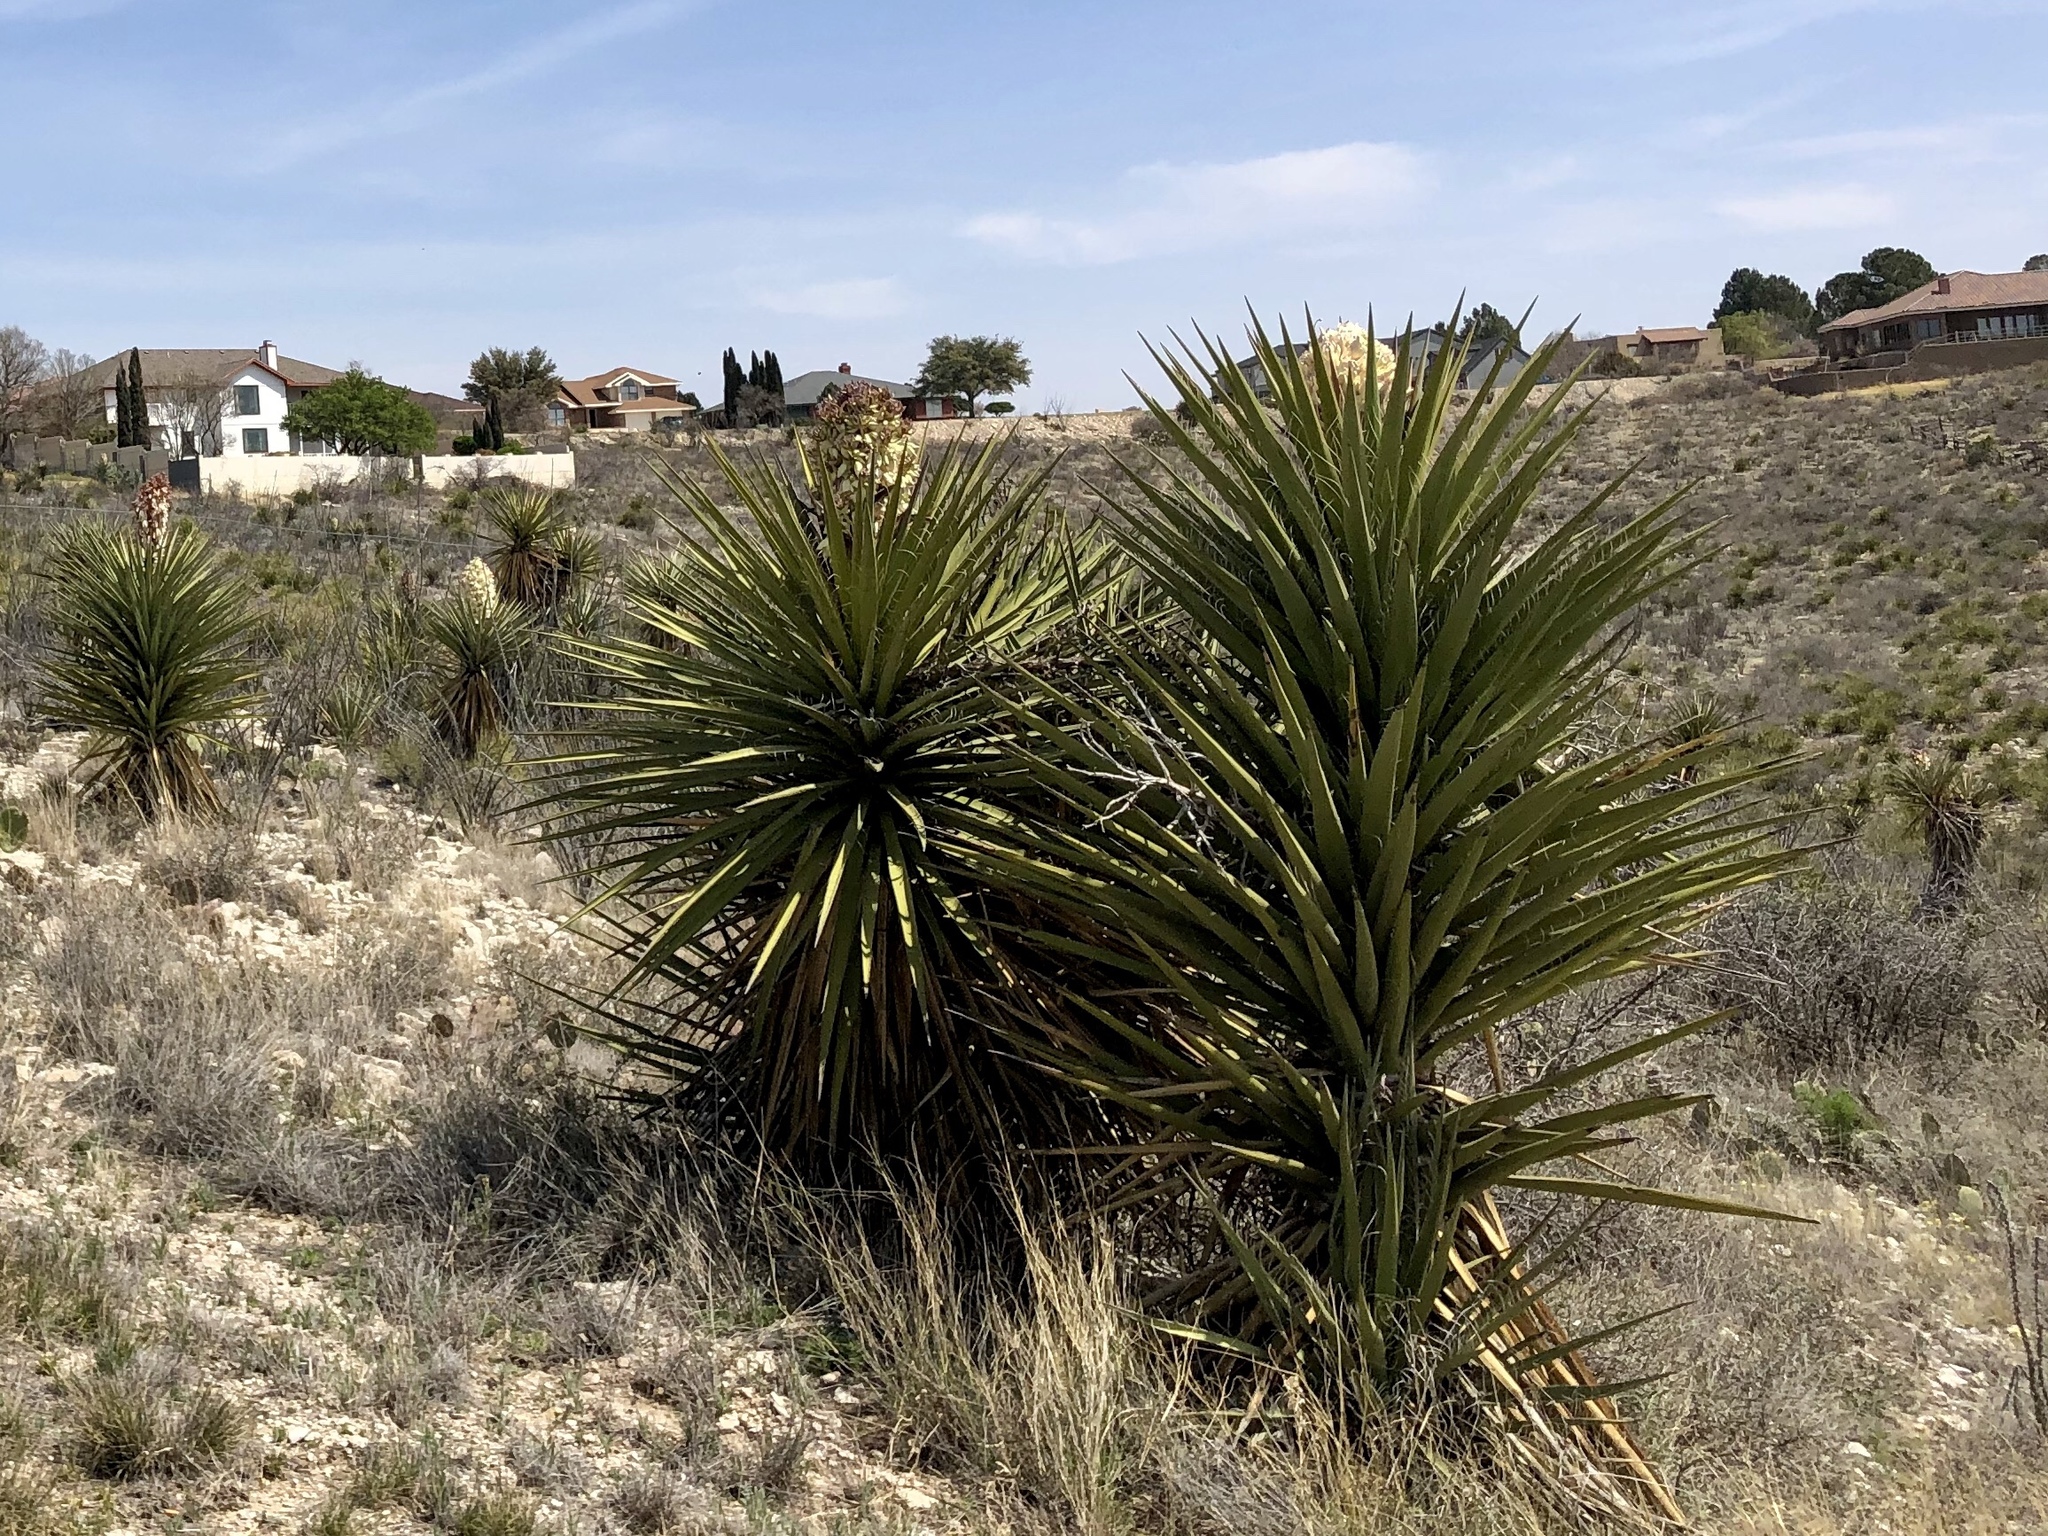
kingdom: Plantae
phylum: Tracheophyta
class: Liliopsida
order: Asparagales
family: Asparagaceae
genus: Yucca
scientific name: Yucca treculiana
